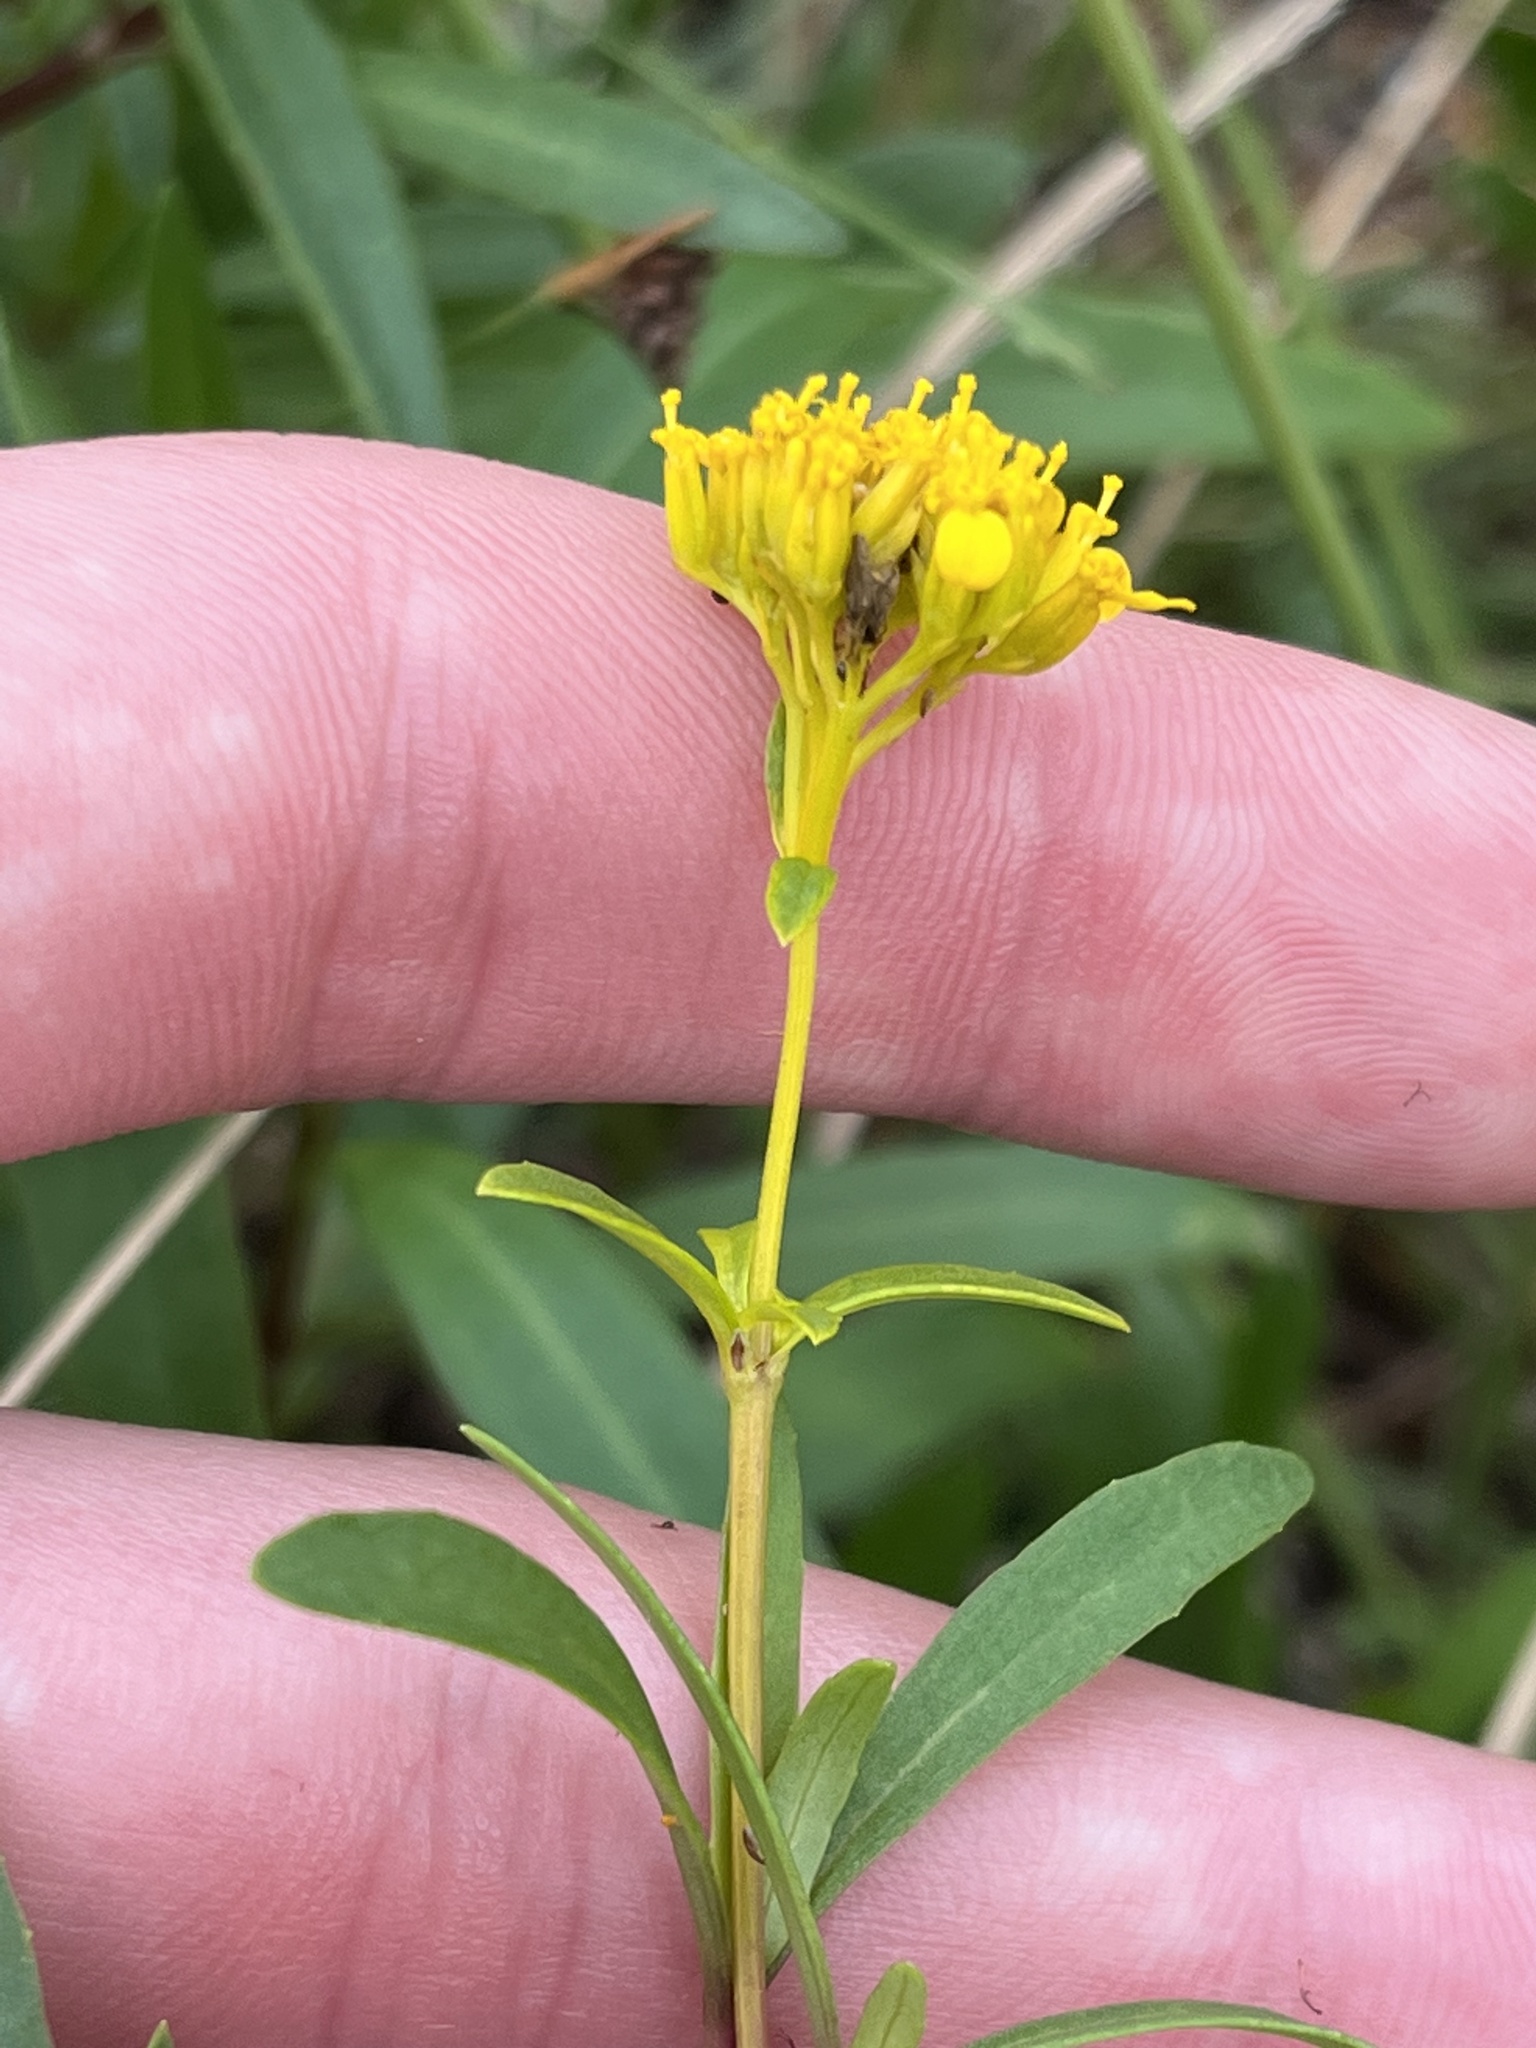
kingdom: Plantae
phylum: Tracheophyta
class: Magnoliopsida
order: Asterales
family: Asteraceae
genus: Flaveria
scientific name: Flaveria linearis
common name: Yellowtop
